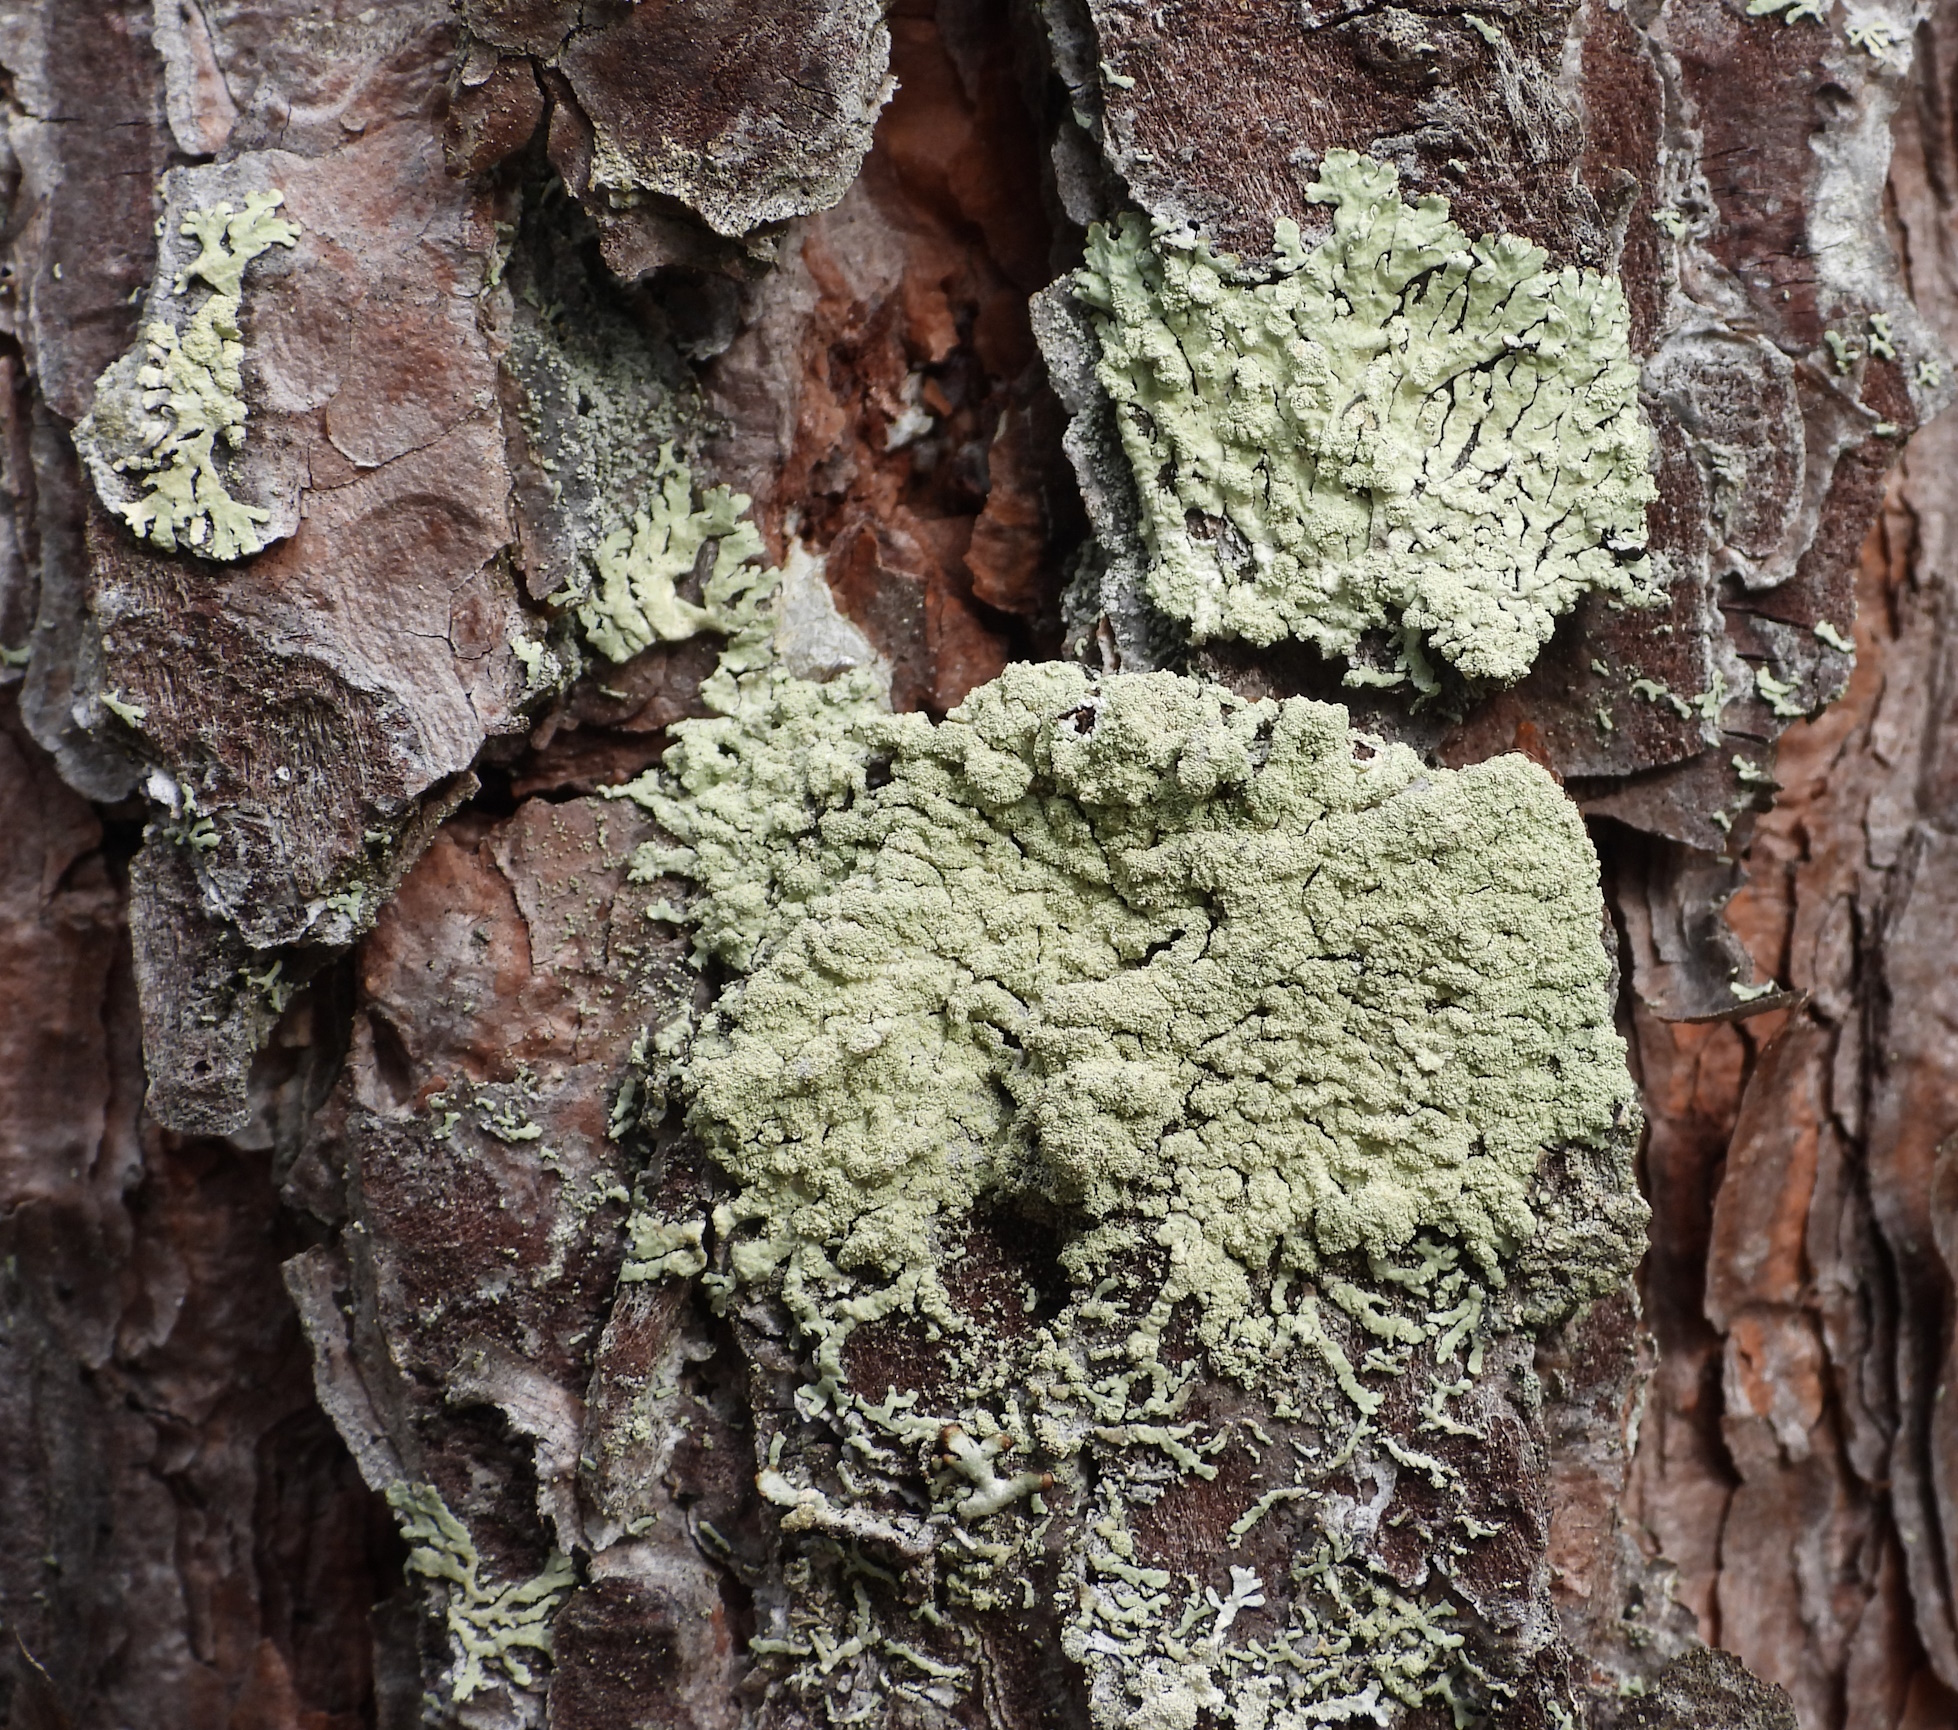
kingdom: Fungi
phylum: Ascomycota
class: Lecanoromycetes
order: Lecanorales
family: Parmeliaceae
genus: Parmeliopsis
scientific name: Parmeliopsis ambigua
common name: Green starburst lichen
